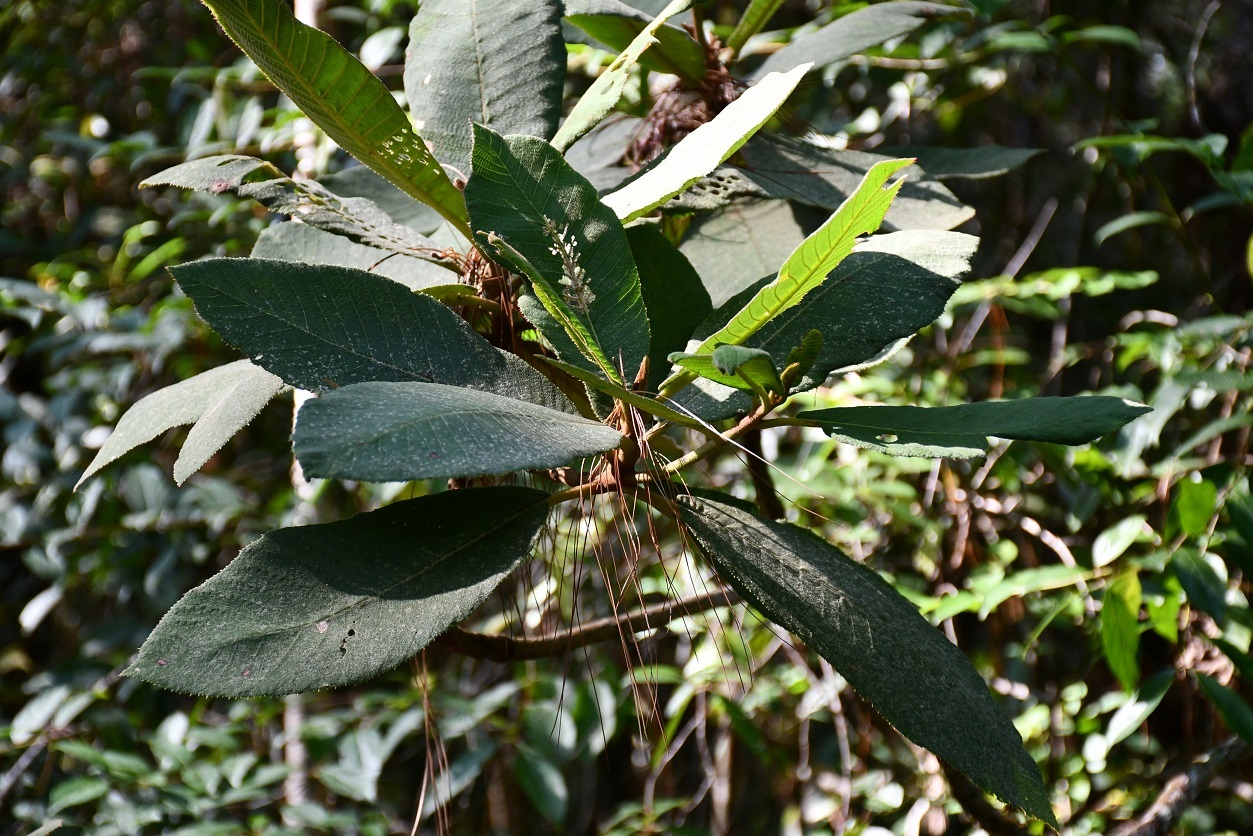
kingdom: Plantae
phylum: Tracheophyta
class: Magnoliopsida
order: Ericales
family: Actinidiaceae
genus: Saurauia
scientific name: Saurauia madrensis
